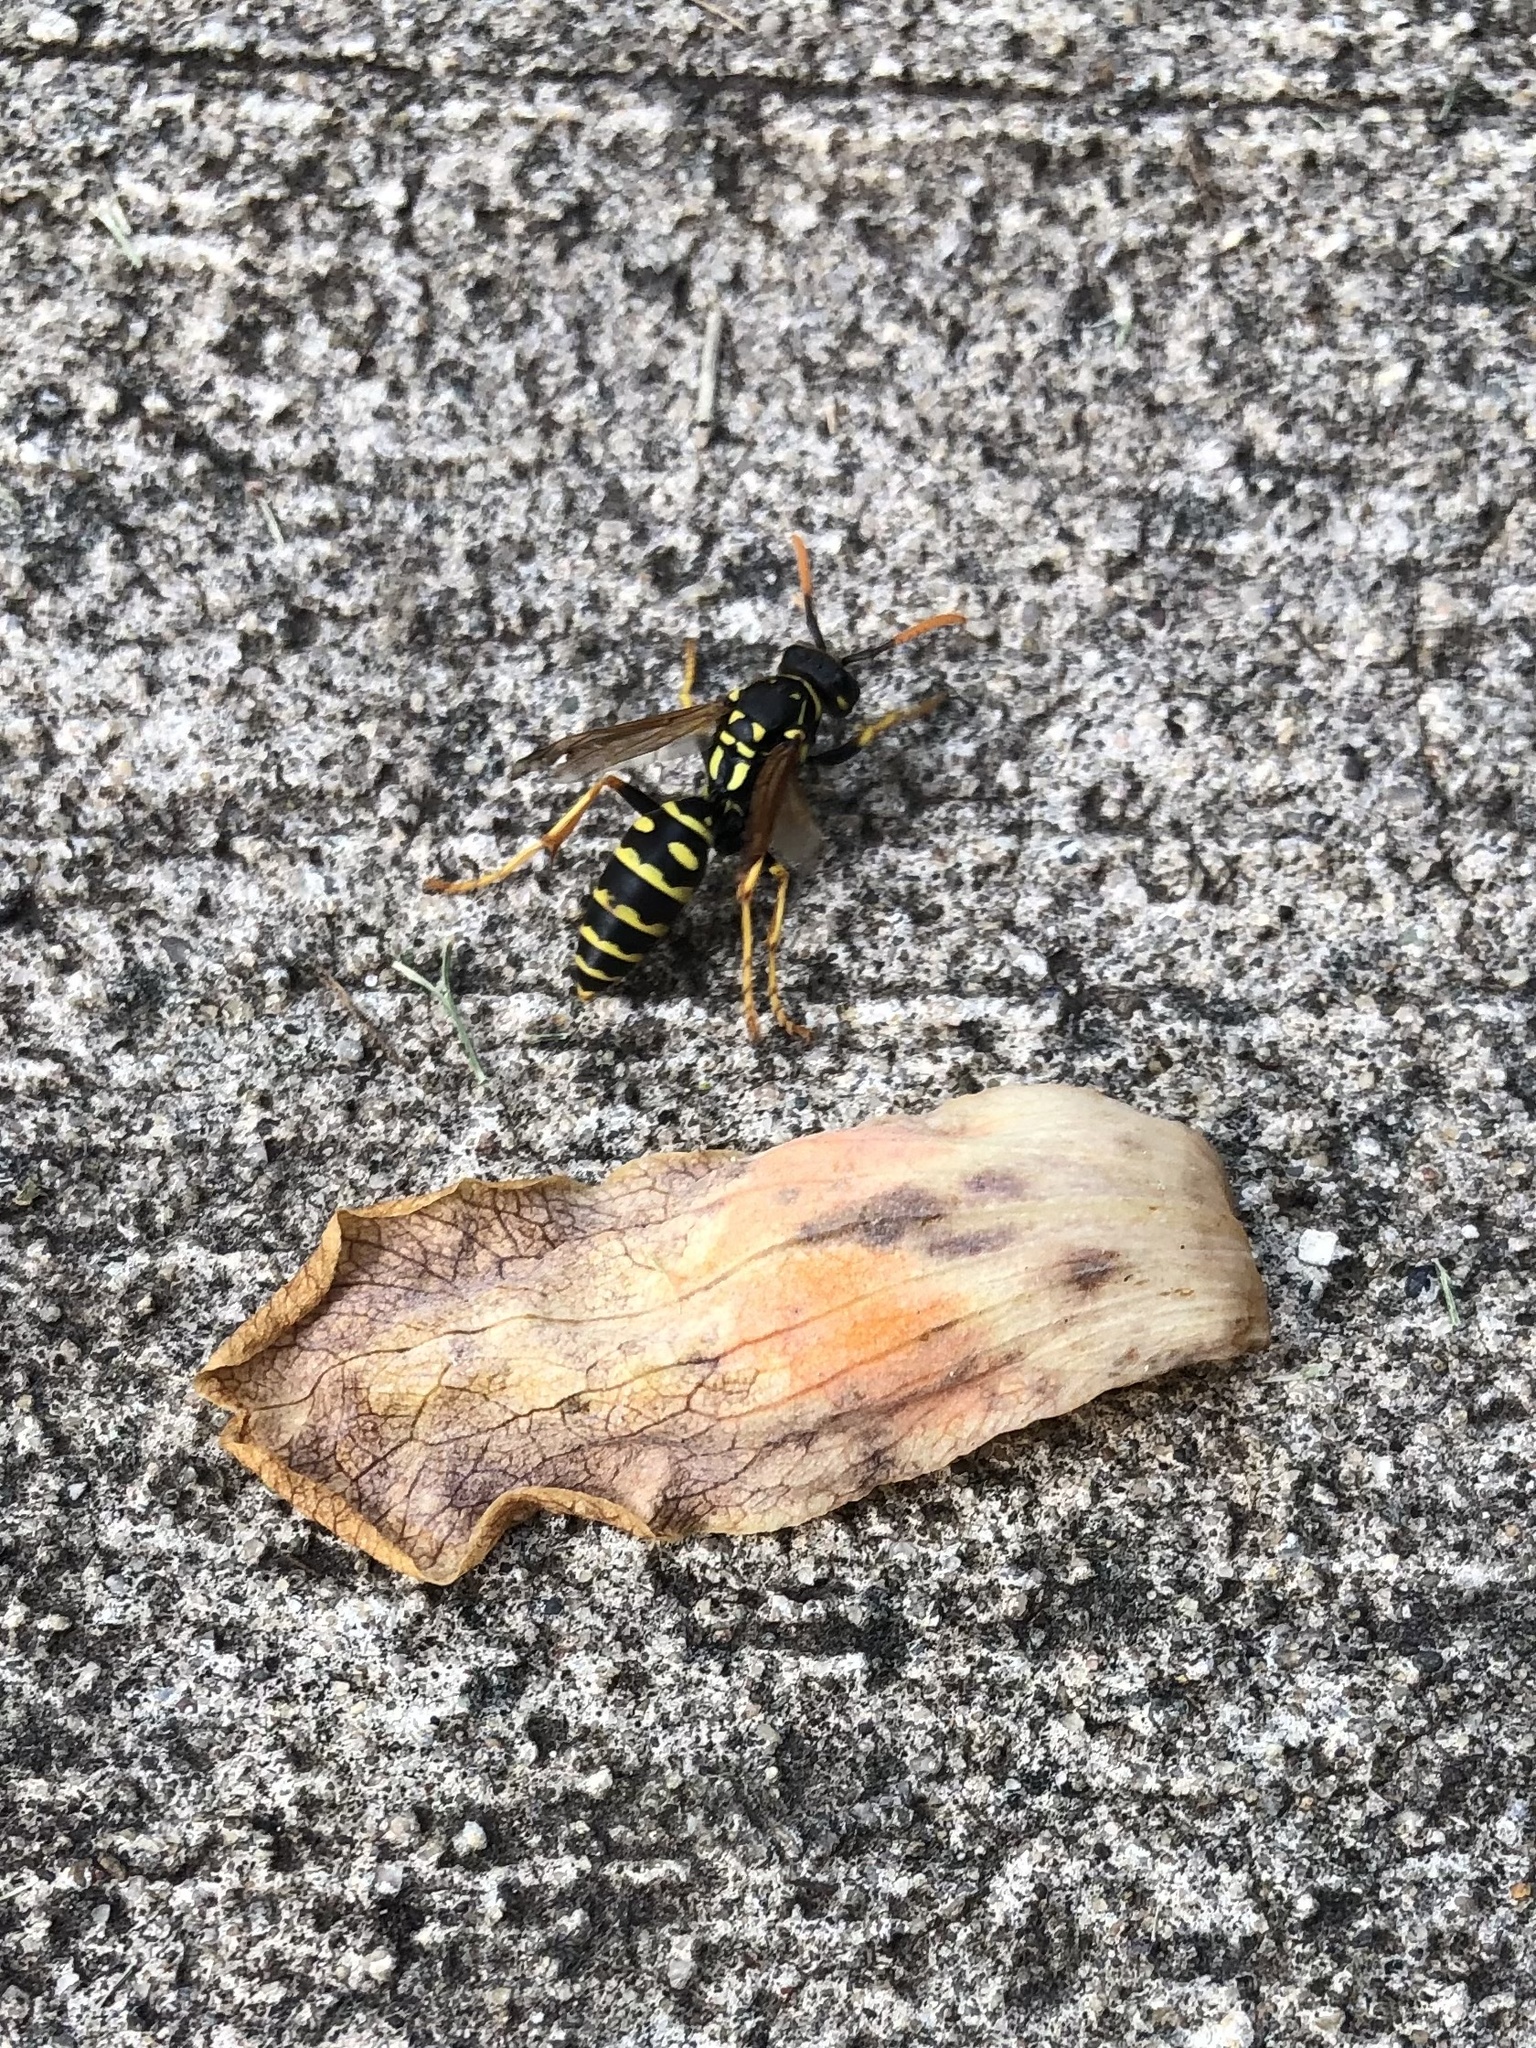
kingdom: Animalia
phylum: Arthropoda
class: Insecta
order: Hymenoptera
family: Eumenidae
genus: Polistes
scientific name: Polistes dominula
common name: Paper wasp
